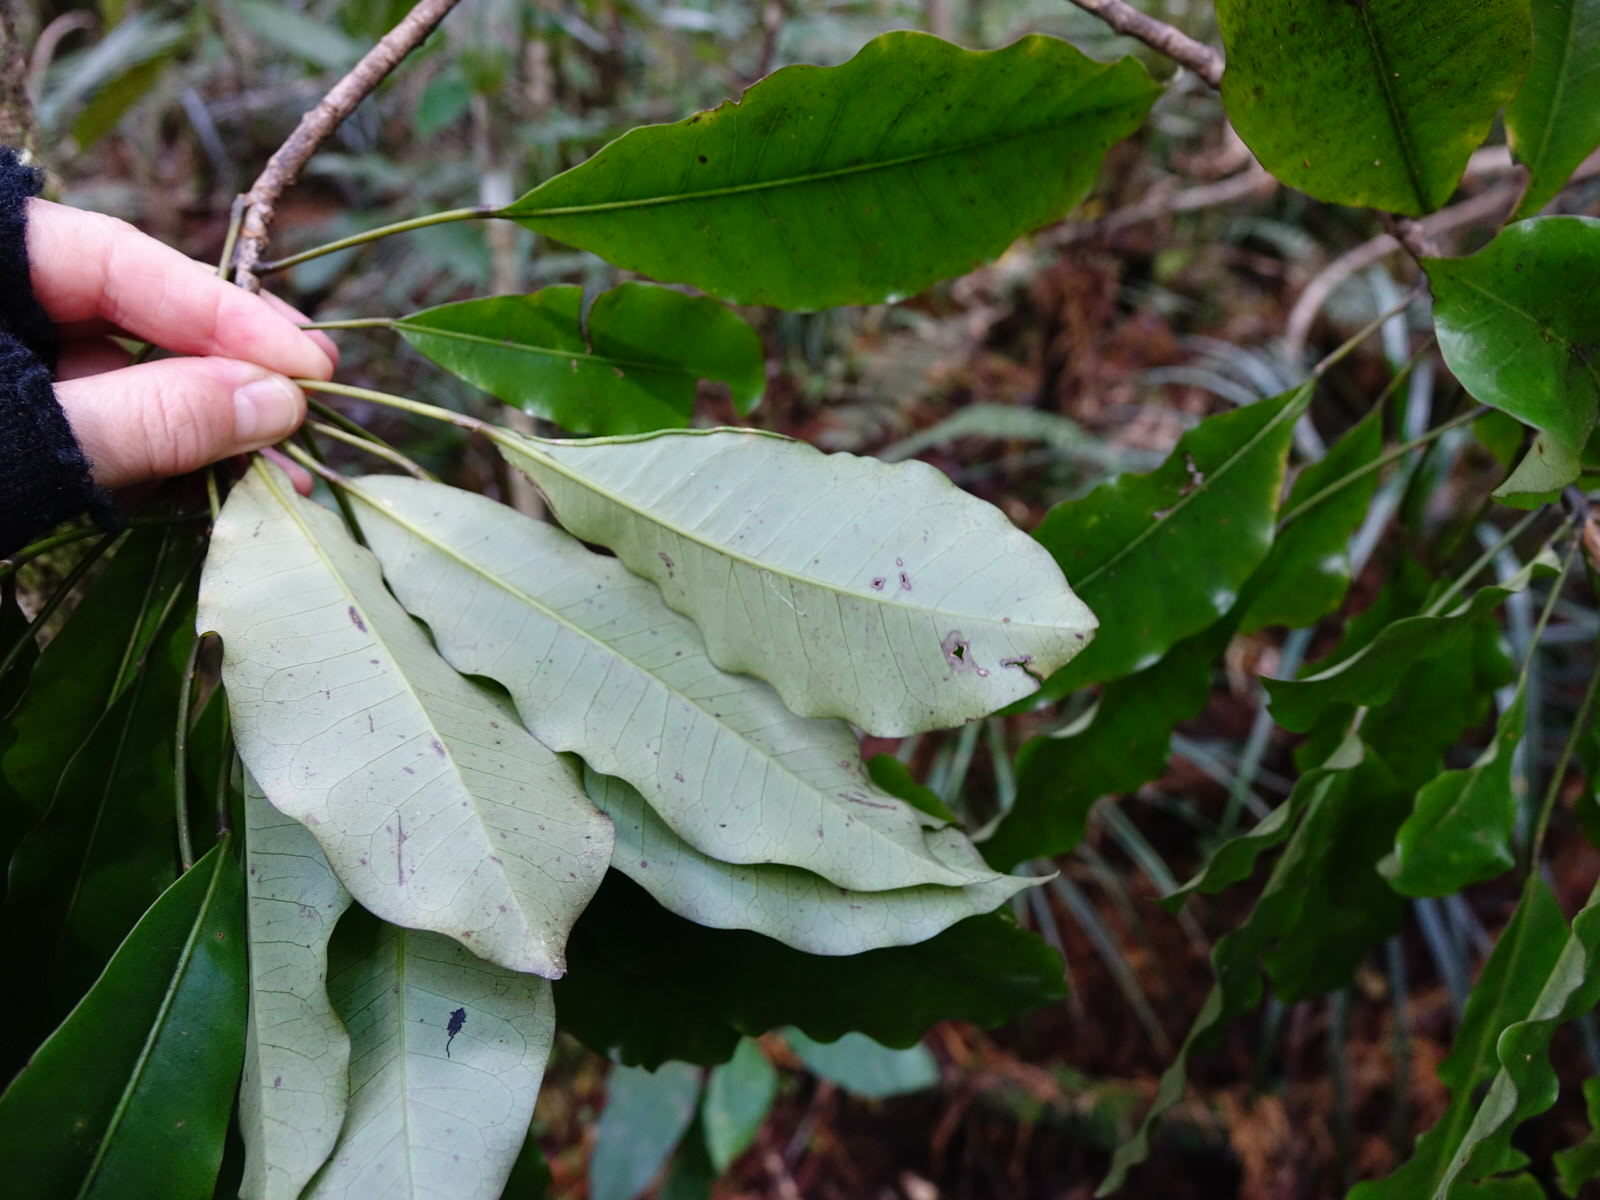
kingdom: Plantae
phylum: Tracheophyta
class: Magnoliopsida
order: Apiales
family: Araliaceae
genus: Raukaua
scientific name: Raukaua edgerleyi
